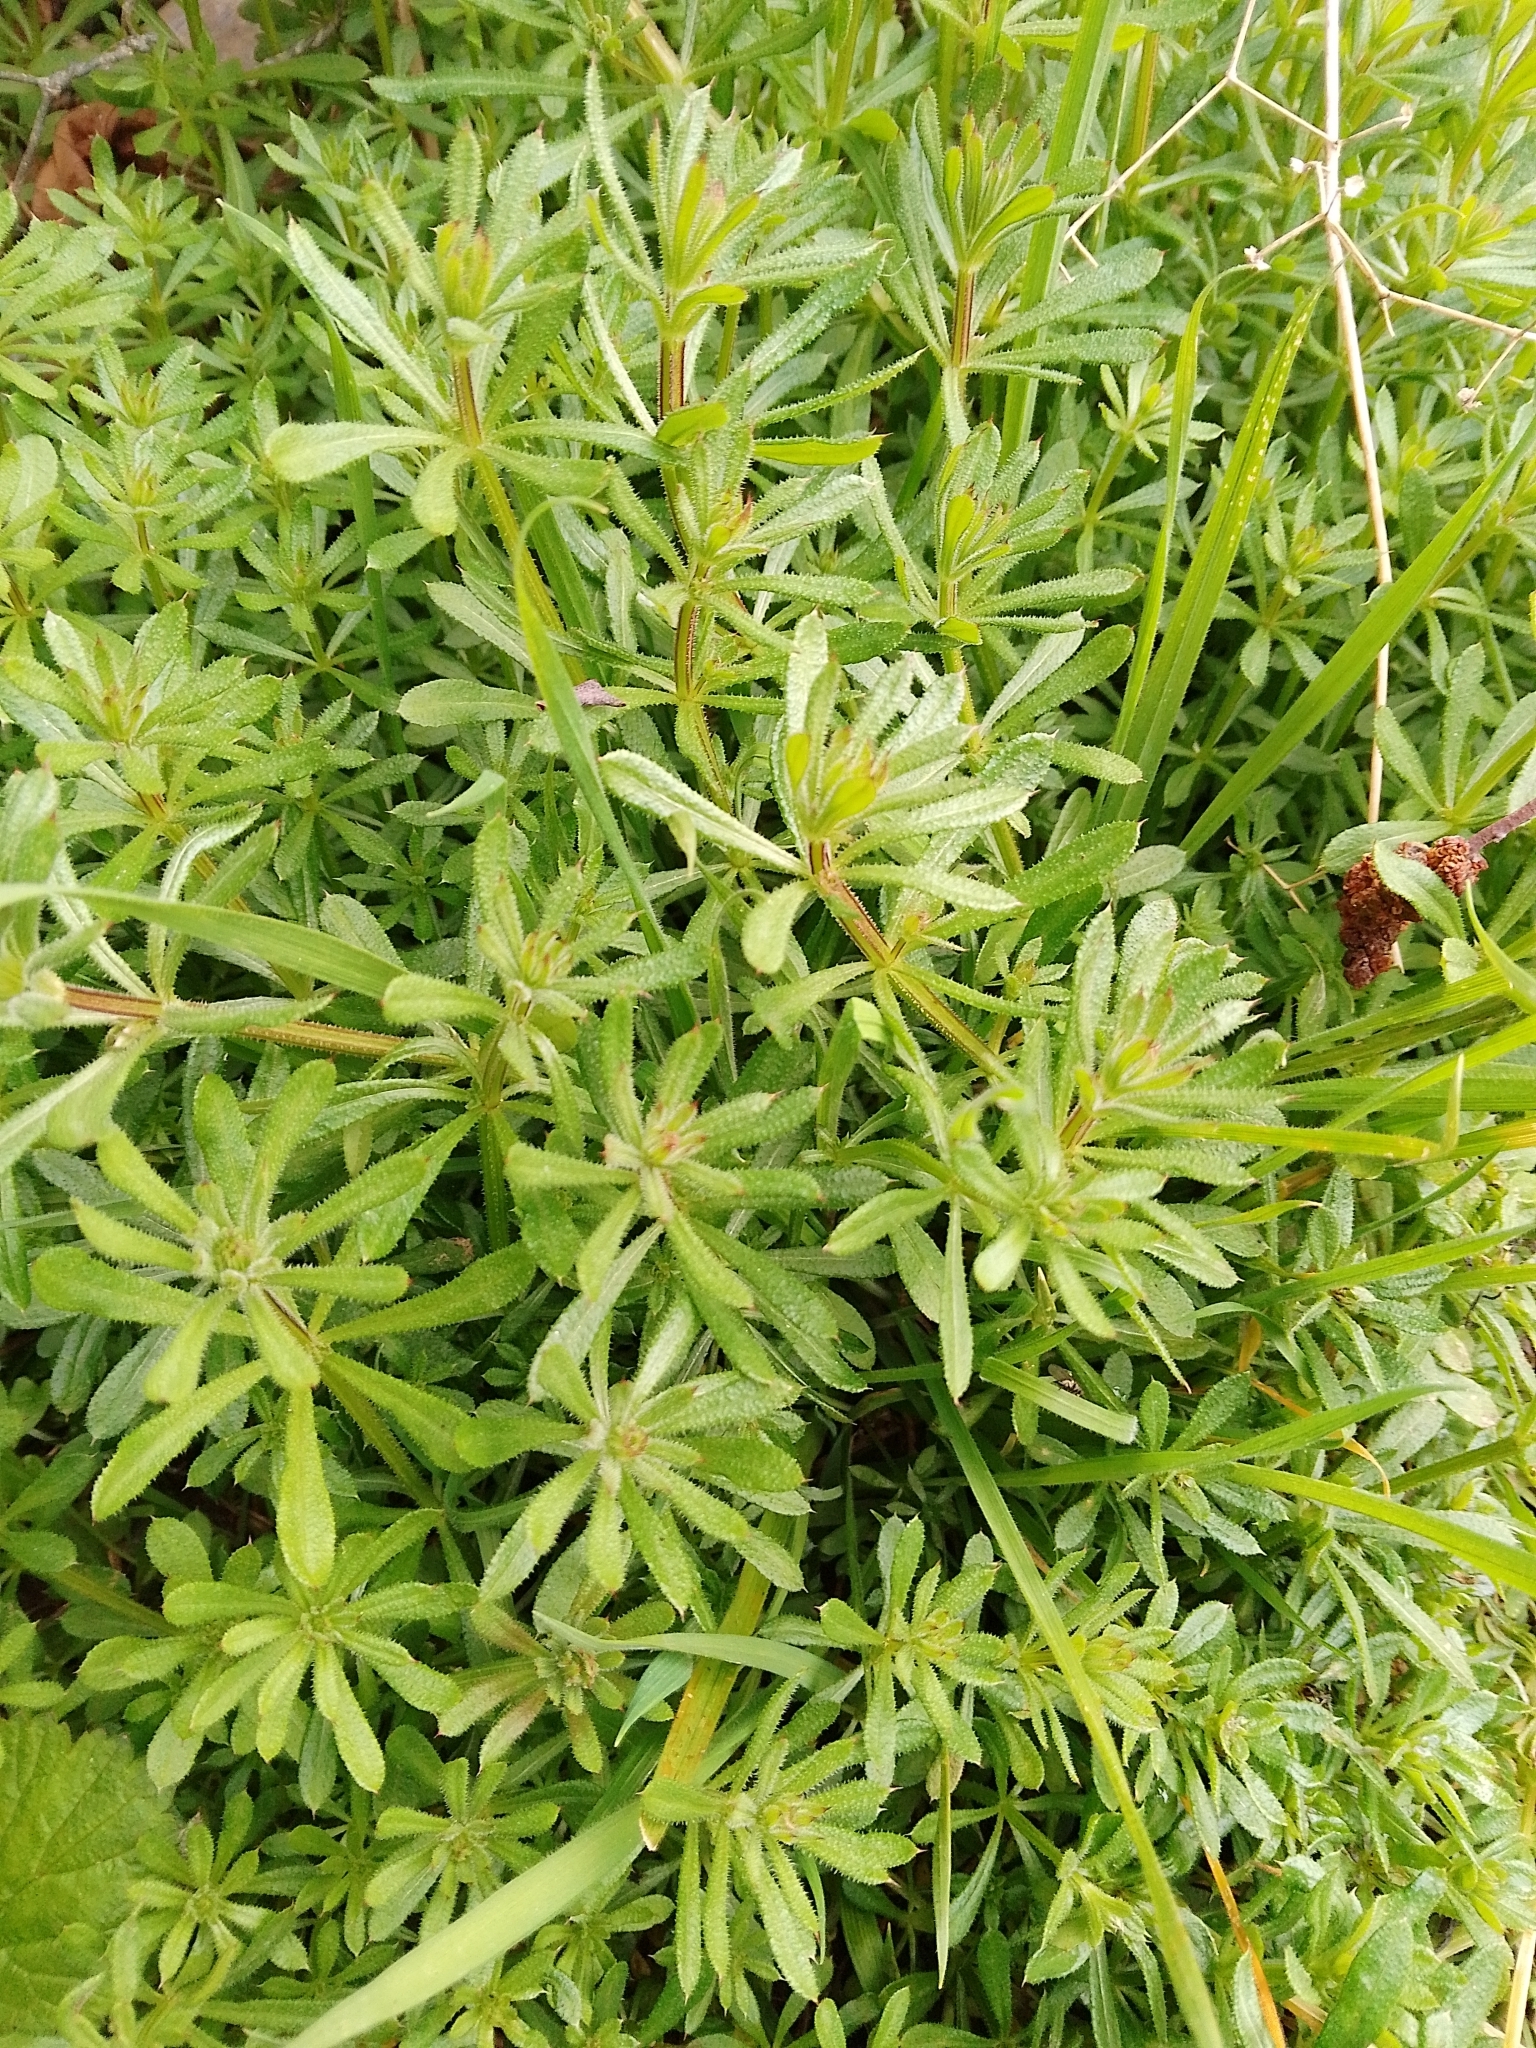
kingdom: Plantae
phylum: Tracheophyta
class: Magnoliopsida
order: Gentianales
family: Rubiaceae
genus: Galium
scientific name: Galium aparine
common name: Cleavers
